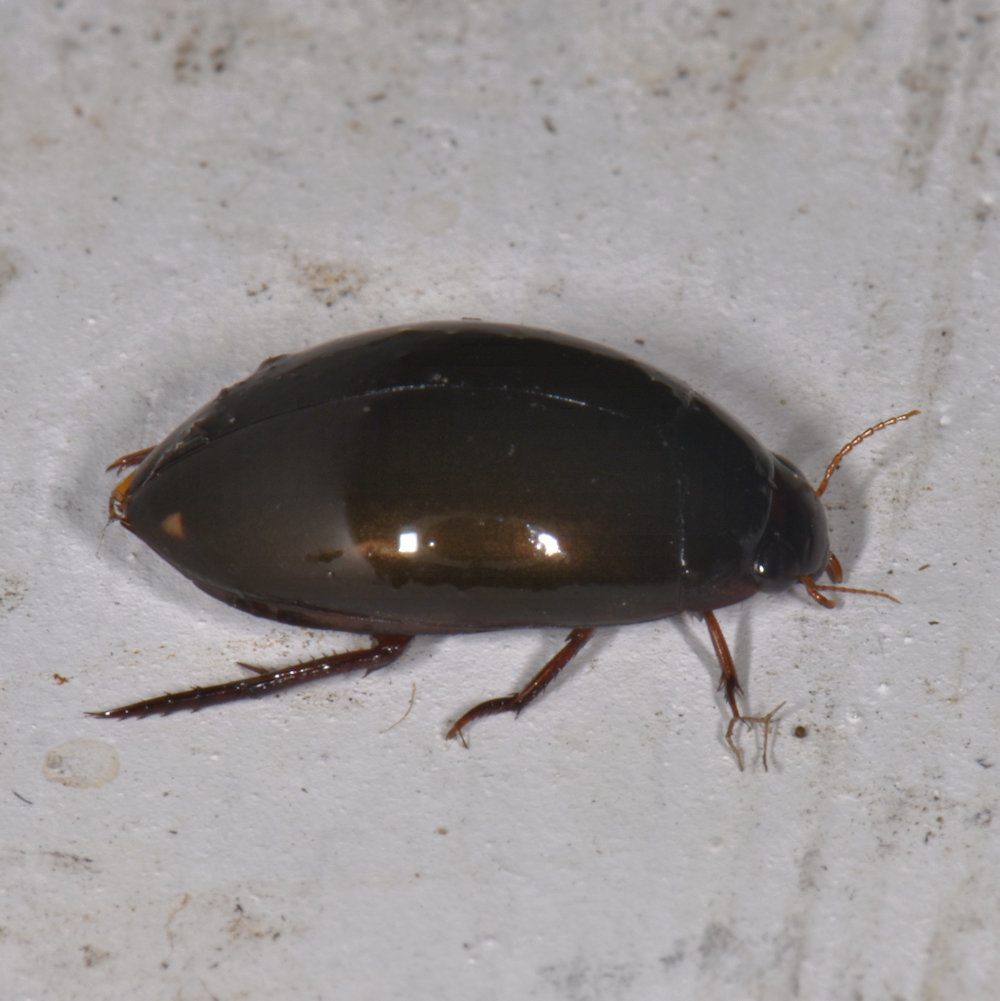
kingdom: Animalia
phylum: Arthropoda
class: Insecta
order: Coleoptera
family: Dytiscidae
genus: Ilybius
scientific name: Ilybius
